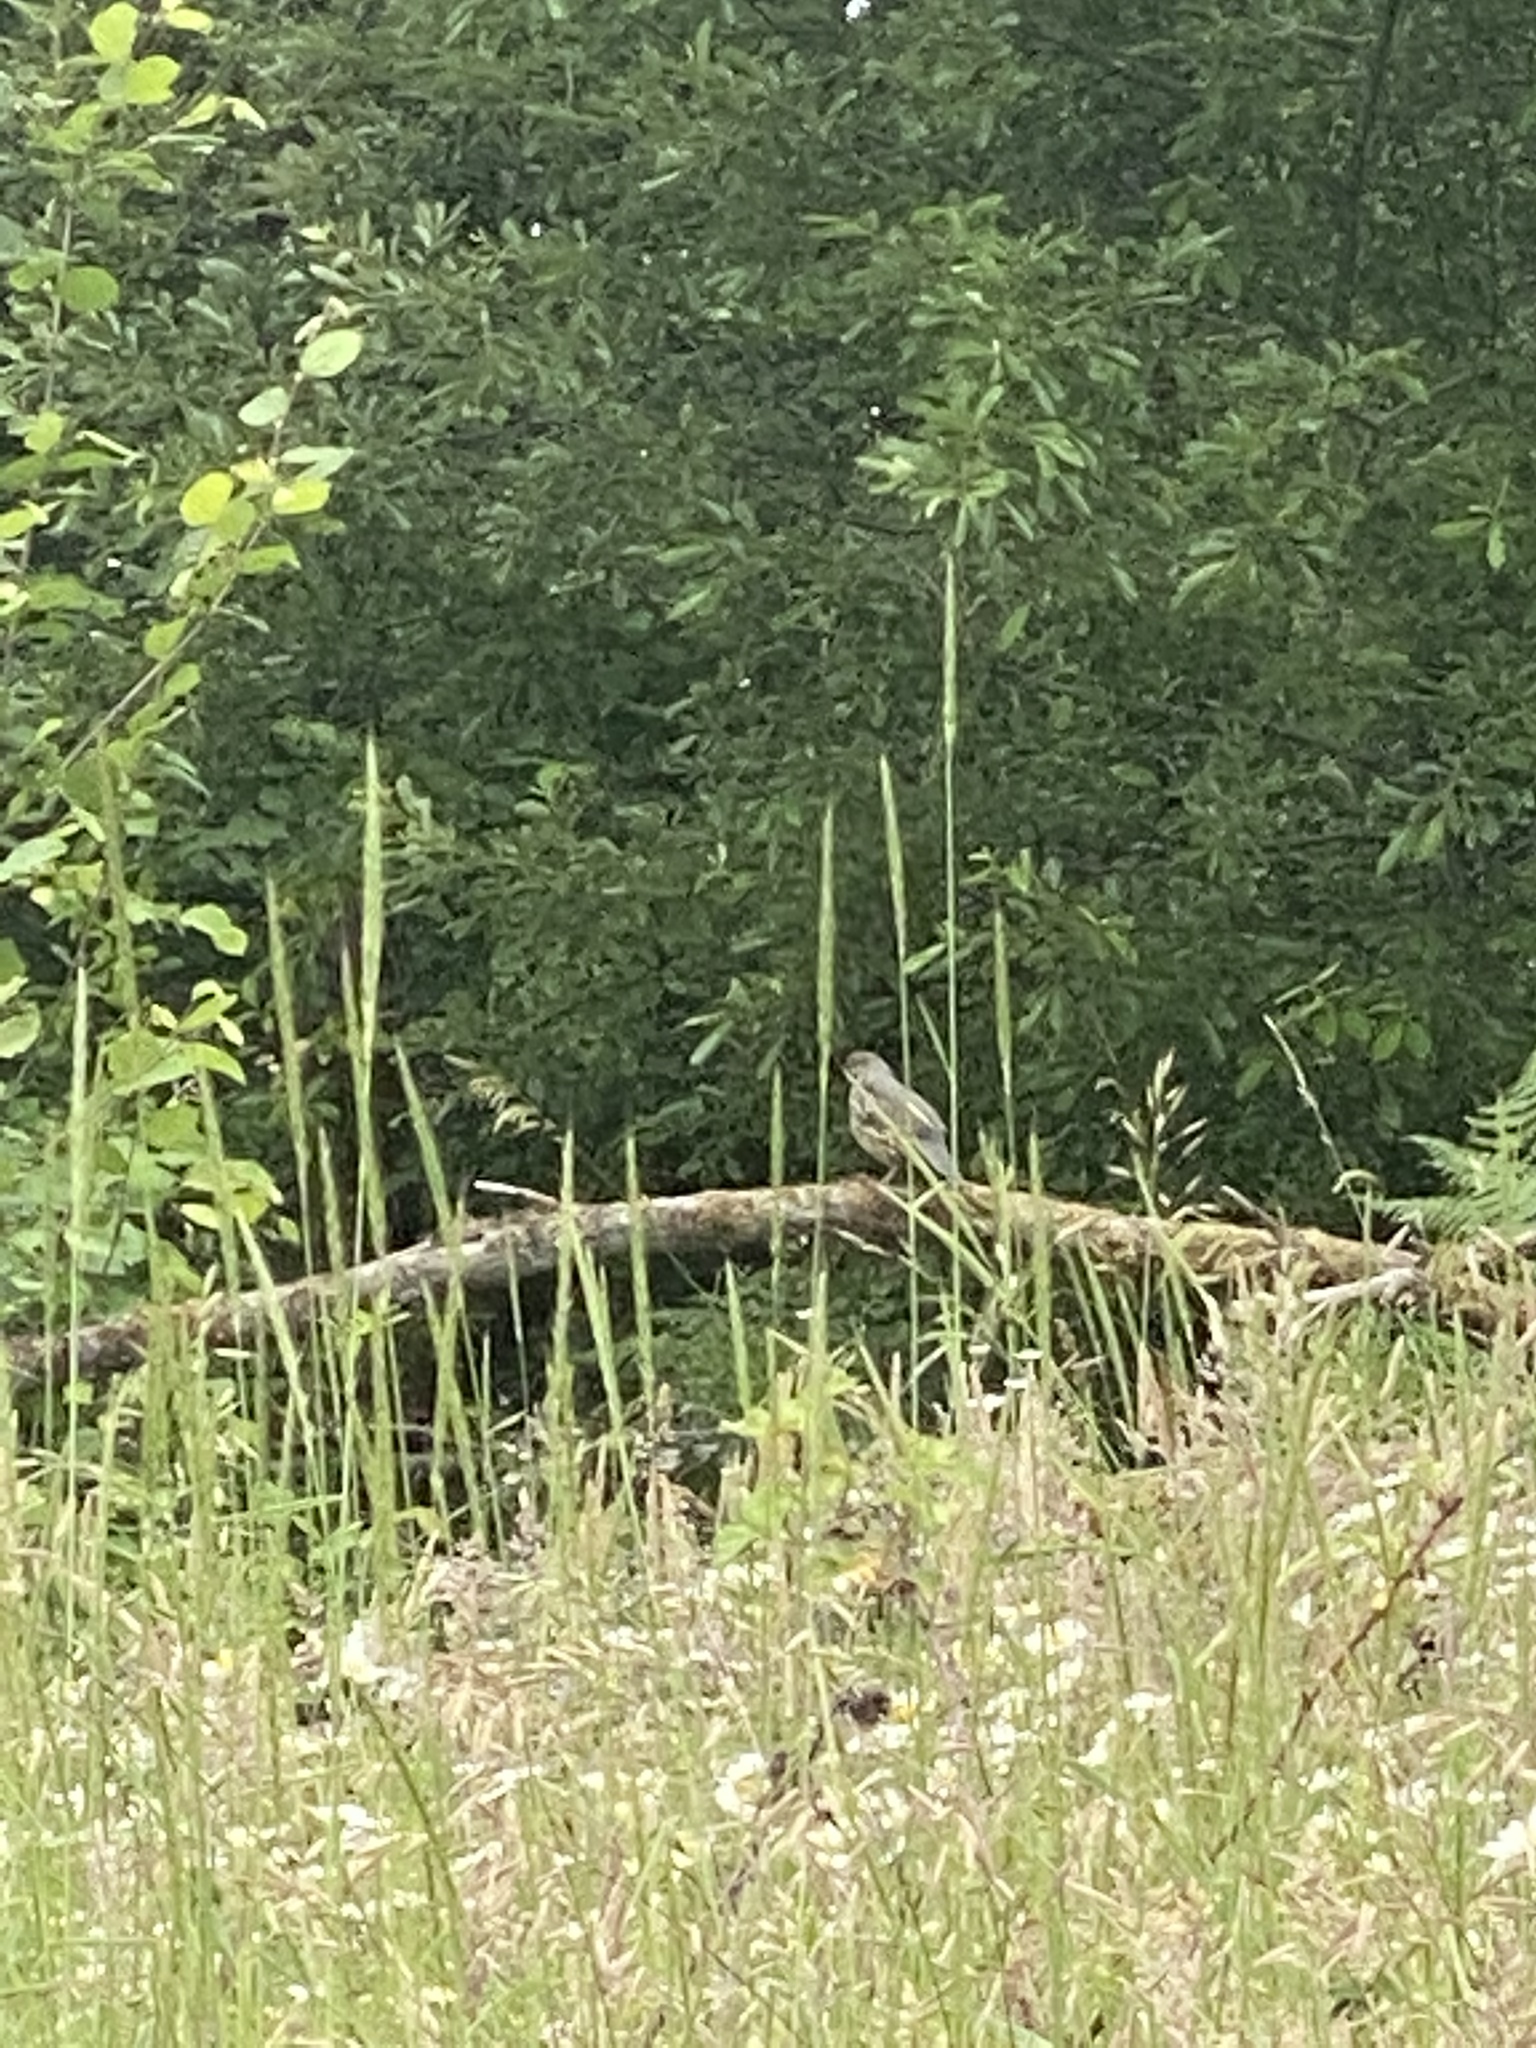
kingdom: Animalia
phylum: Chordata
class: Aves
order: Galliformes
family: Odontophoridae
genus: Callipepla
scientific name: Callipepla californica
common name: California quail
